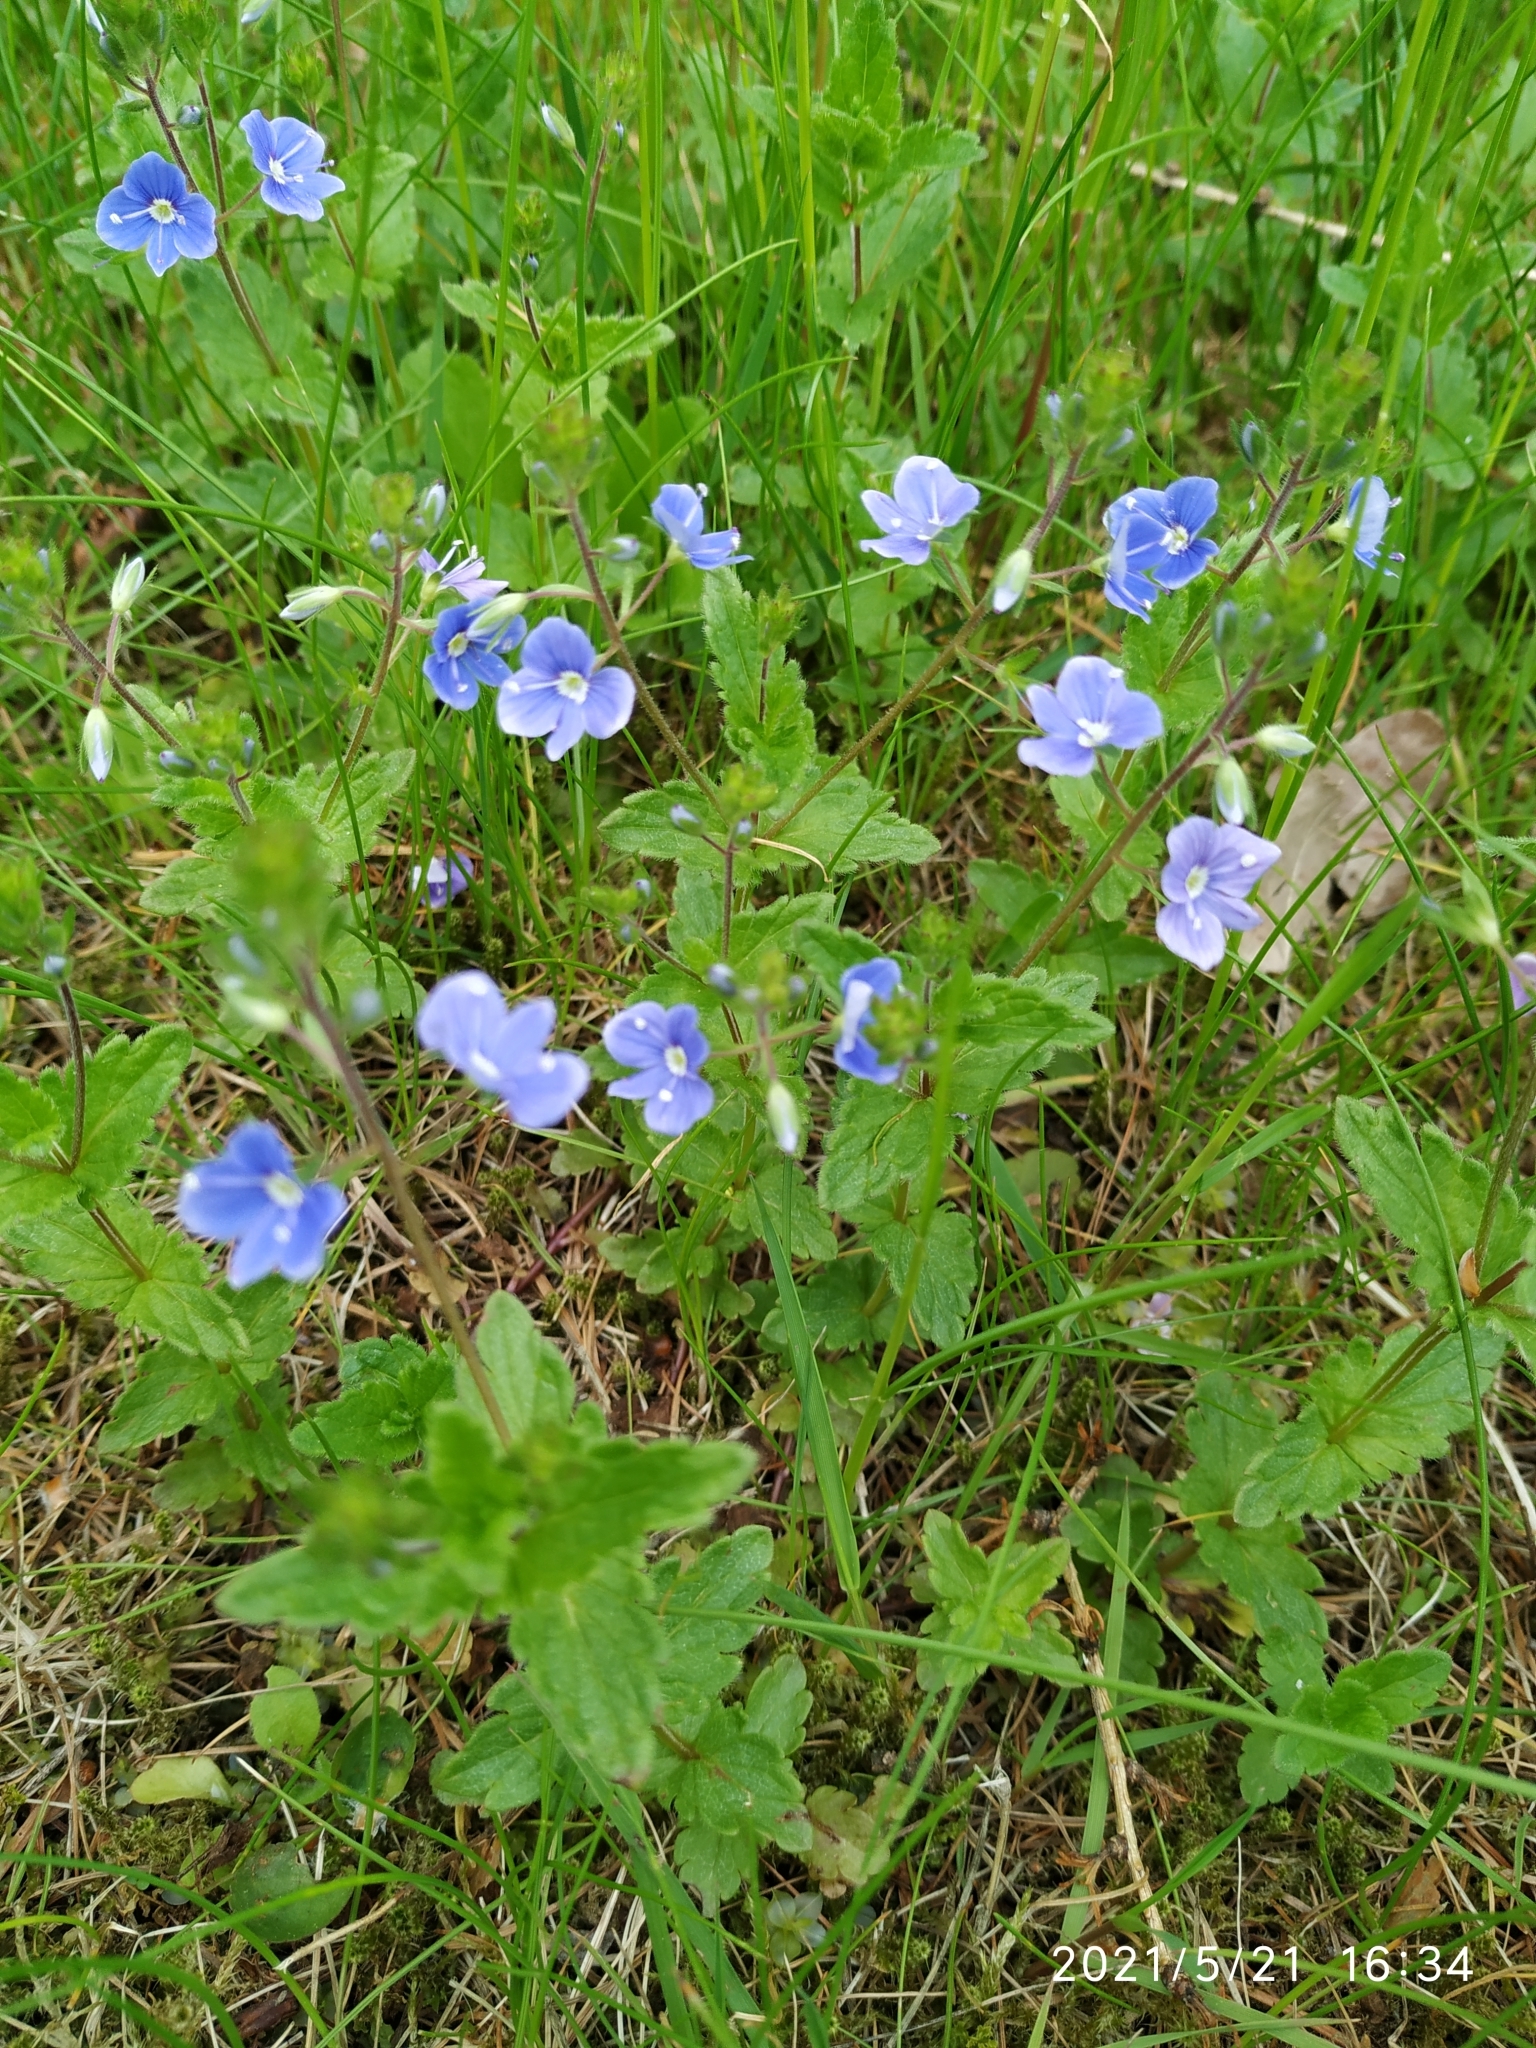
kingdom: Plantae
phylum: Tracheophyta
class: Magnoliopsida
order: Lamiales
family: Plantaginaceae
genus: Veronica
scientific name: Veronica chamaedrys
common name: Germander speedwell
